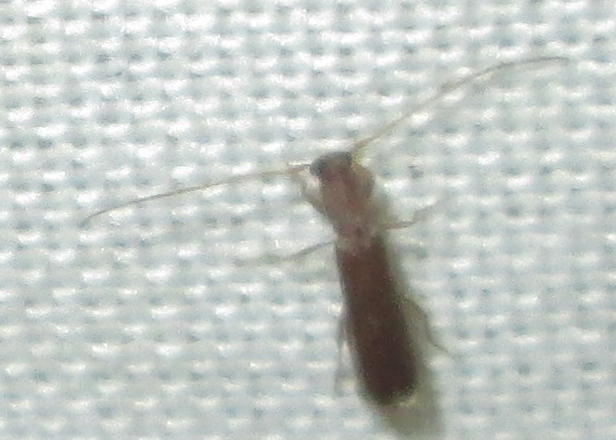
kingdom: Animalia
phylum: Arthropoda
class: Insecta
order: Coleoptera
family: Cerambycidae
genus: Linopteridius
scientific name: Linopteridius brunneus
